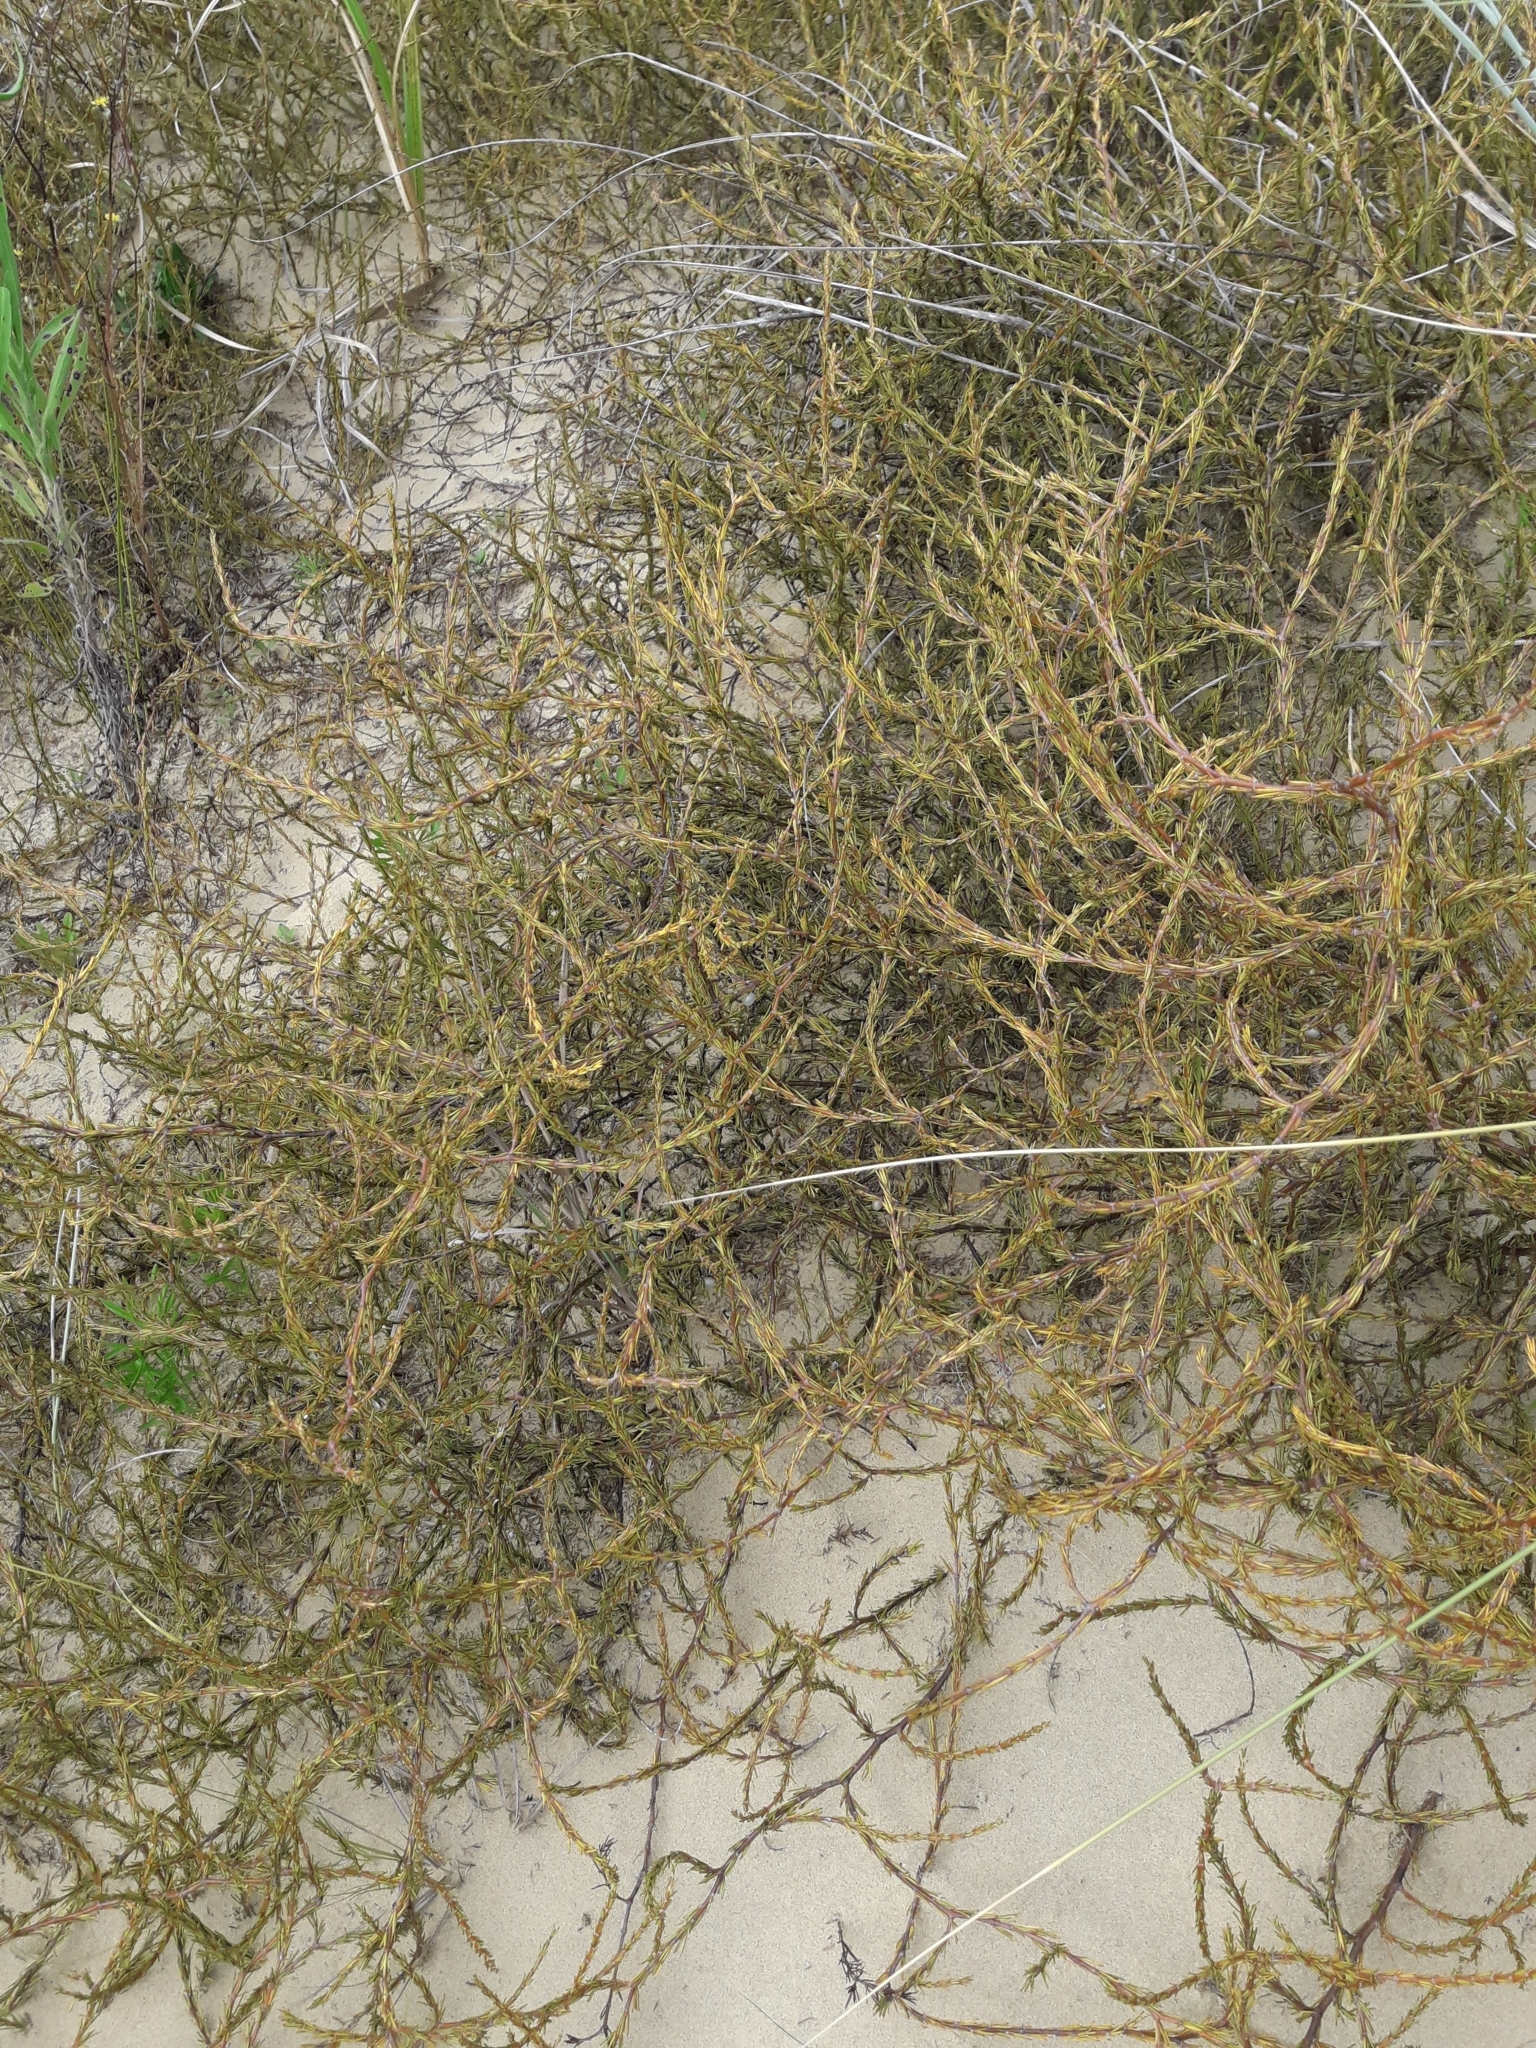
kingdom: Plantae
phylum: Tracheophyta
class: Magnoliopsida
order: Gentianales
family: Rubiaceae
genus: Coprosma
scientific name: Coprosma acerosa
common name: Sand coprosma
